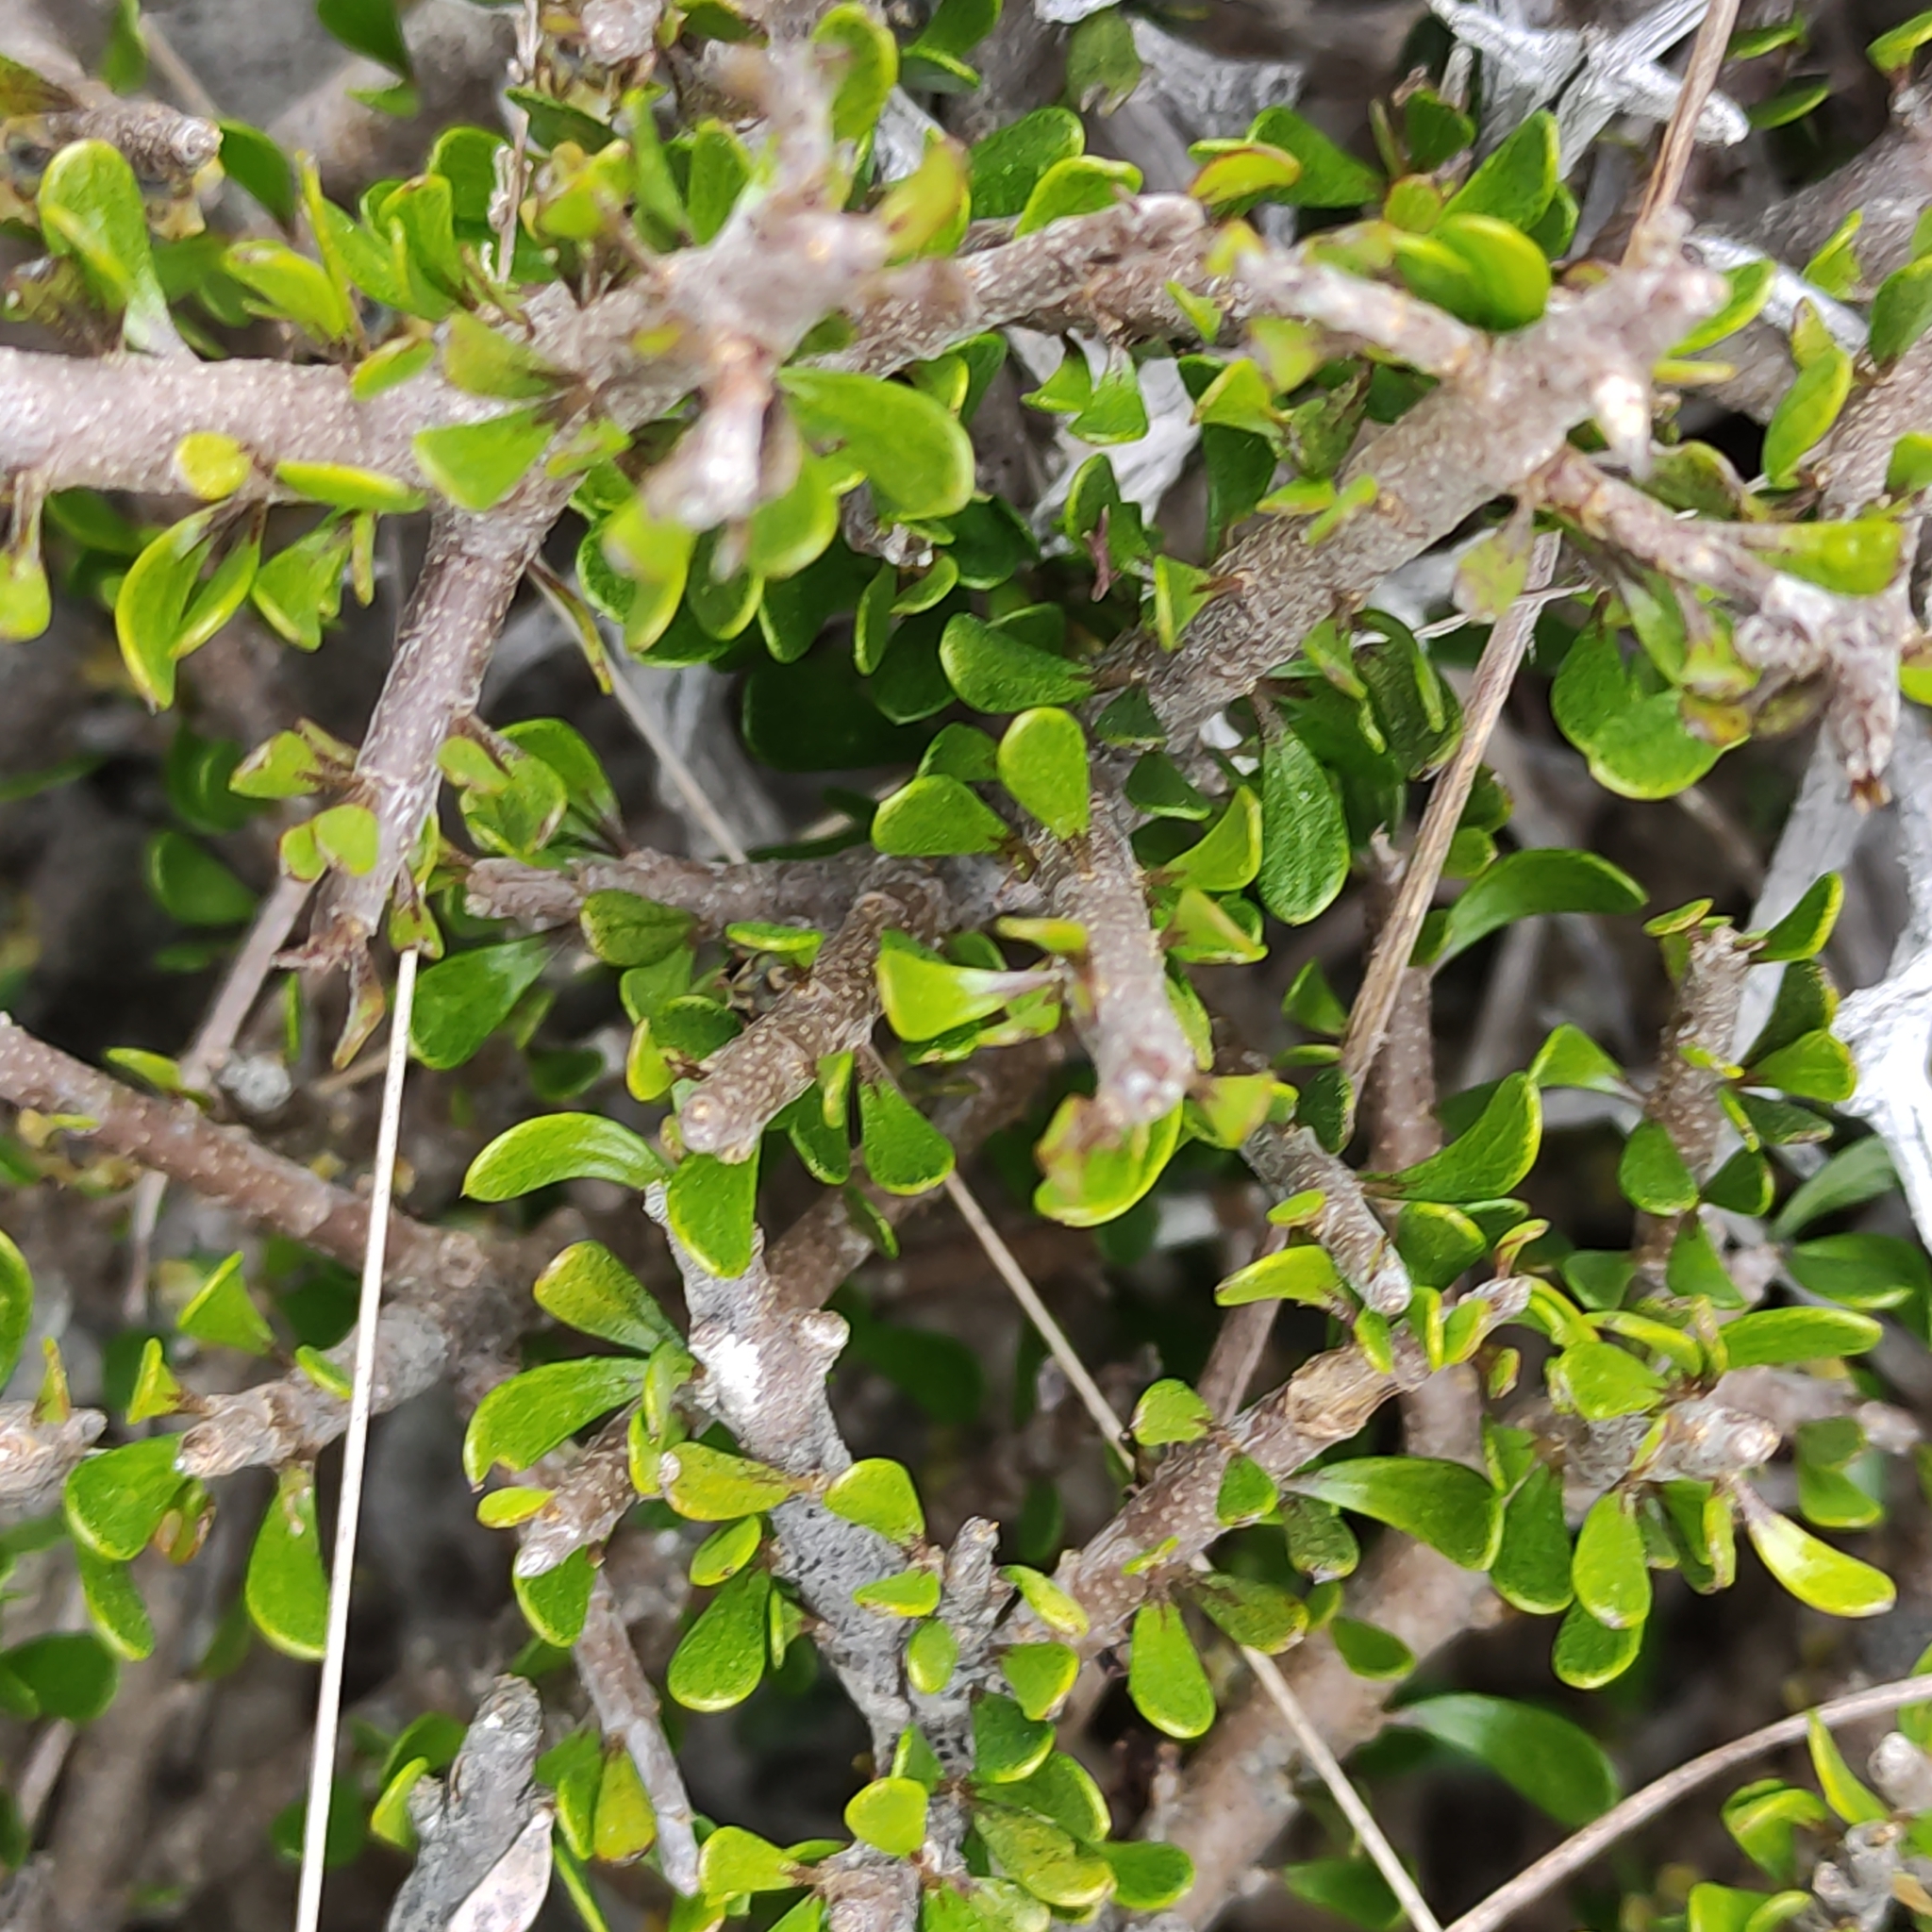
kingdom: Plantae
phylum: Tracheophyta
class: Magnoliopsida
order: Malpighiales
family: Violaceae
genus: Melicytus
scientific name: Melicytus alpinus
